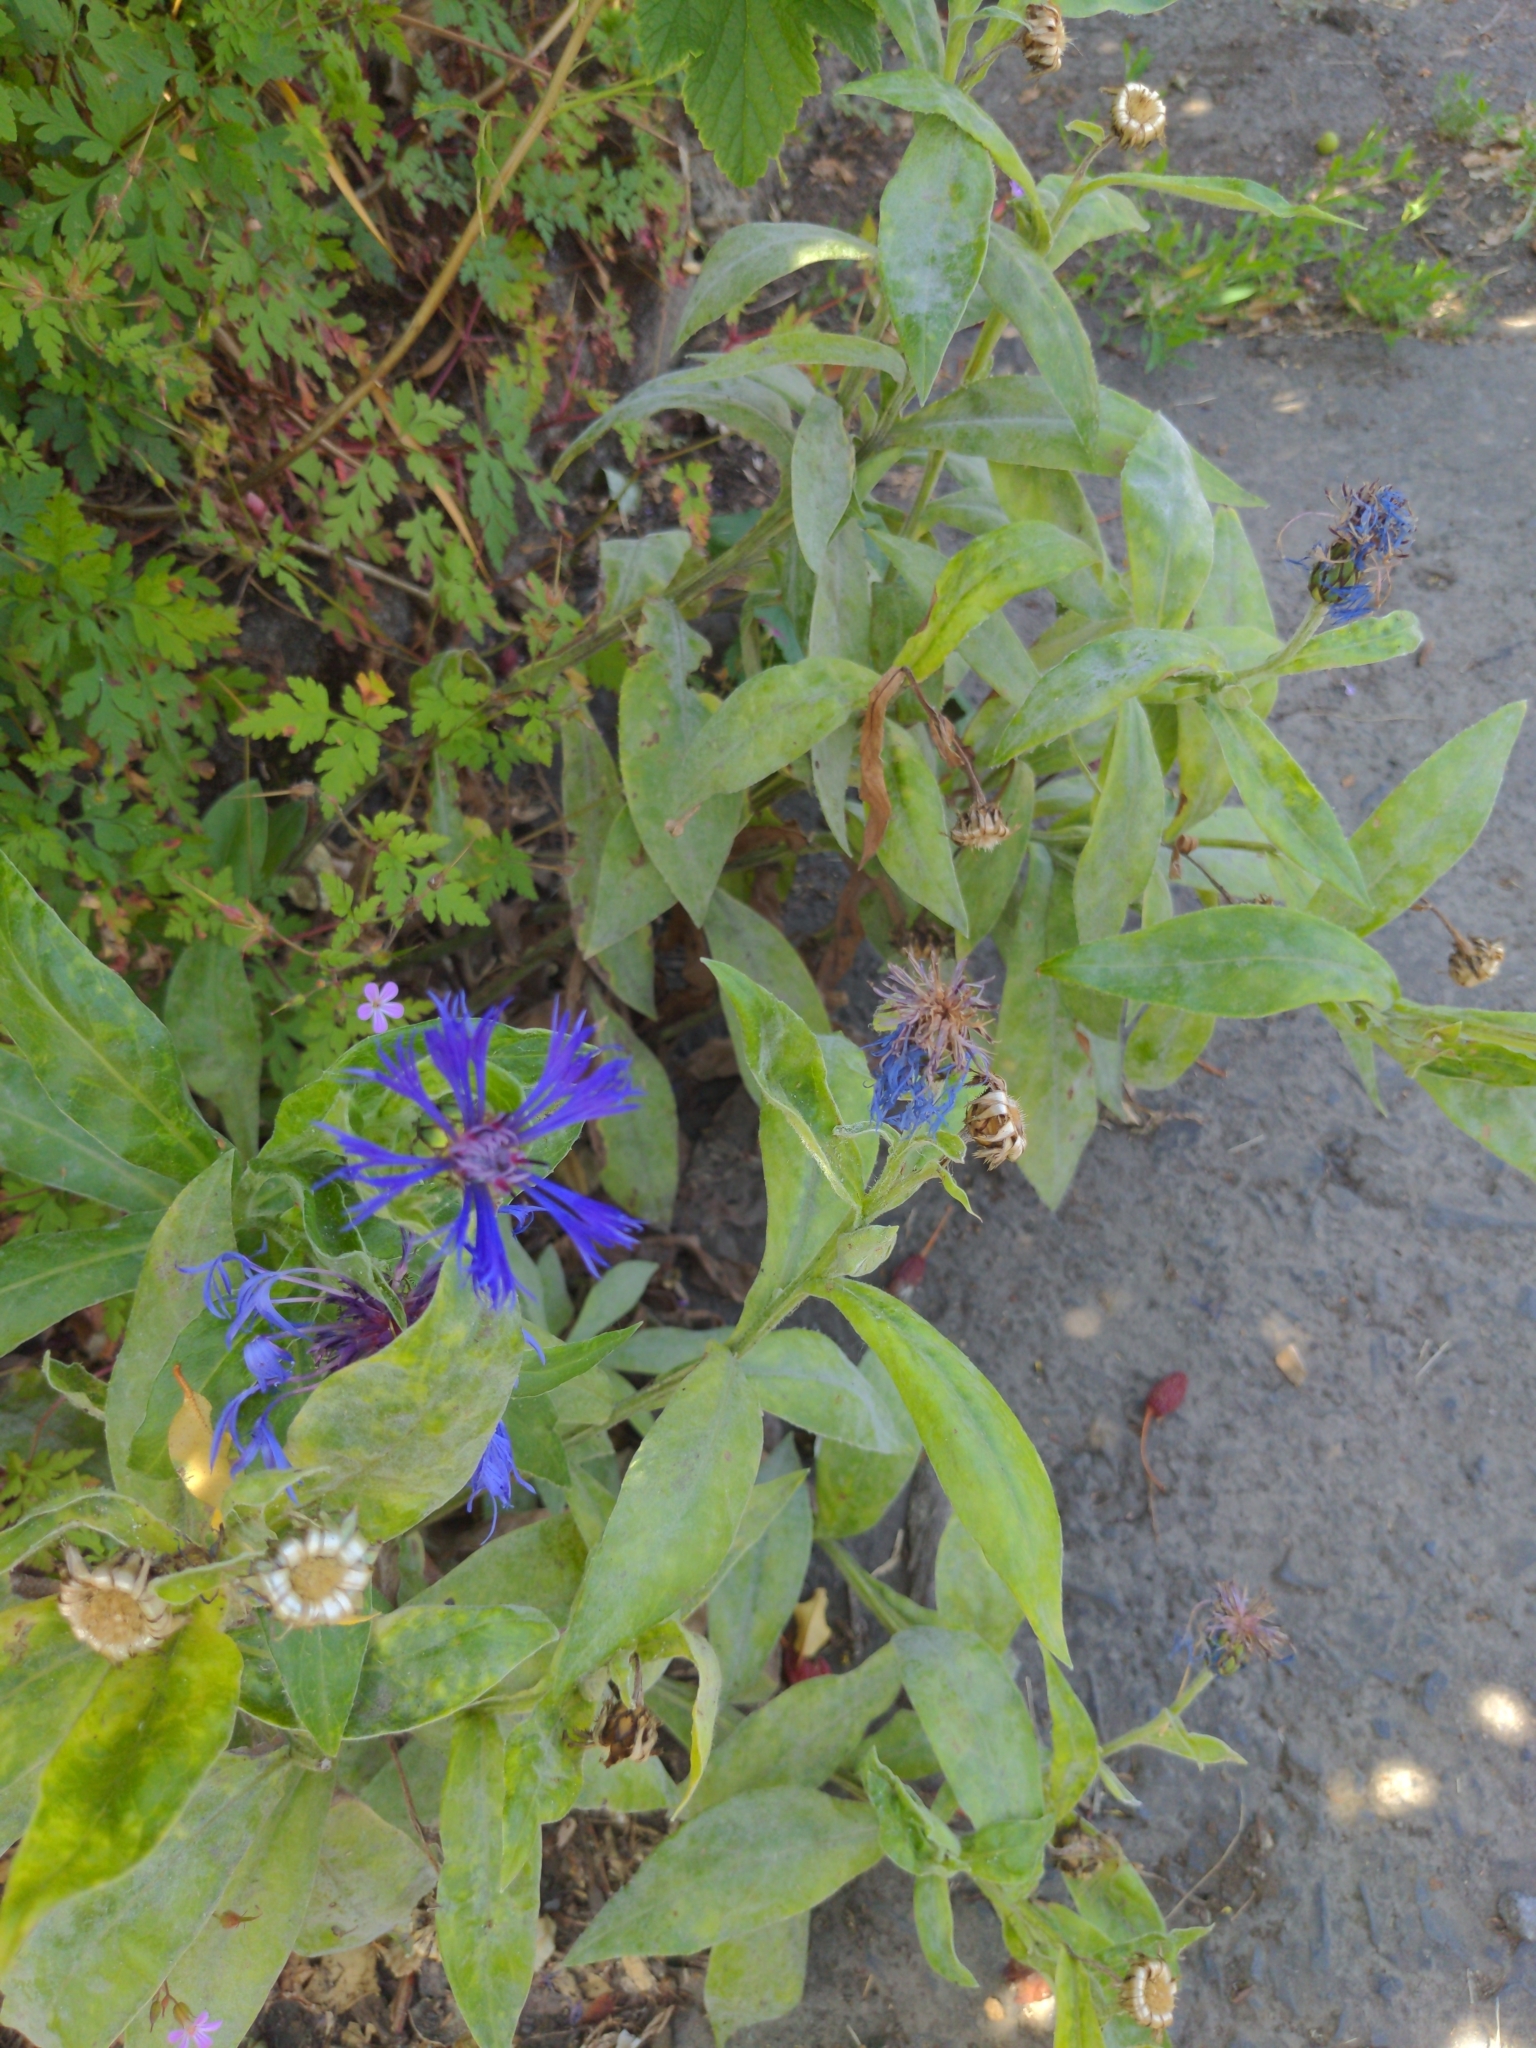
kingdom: Plantae
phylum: Tracheophyta
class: Magnoliopsida
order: Asterales
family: Asteraceae
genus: Centaurea
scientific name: Centaurea cyanus
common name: Cornflower
